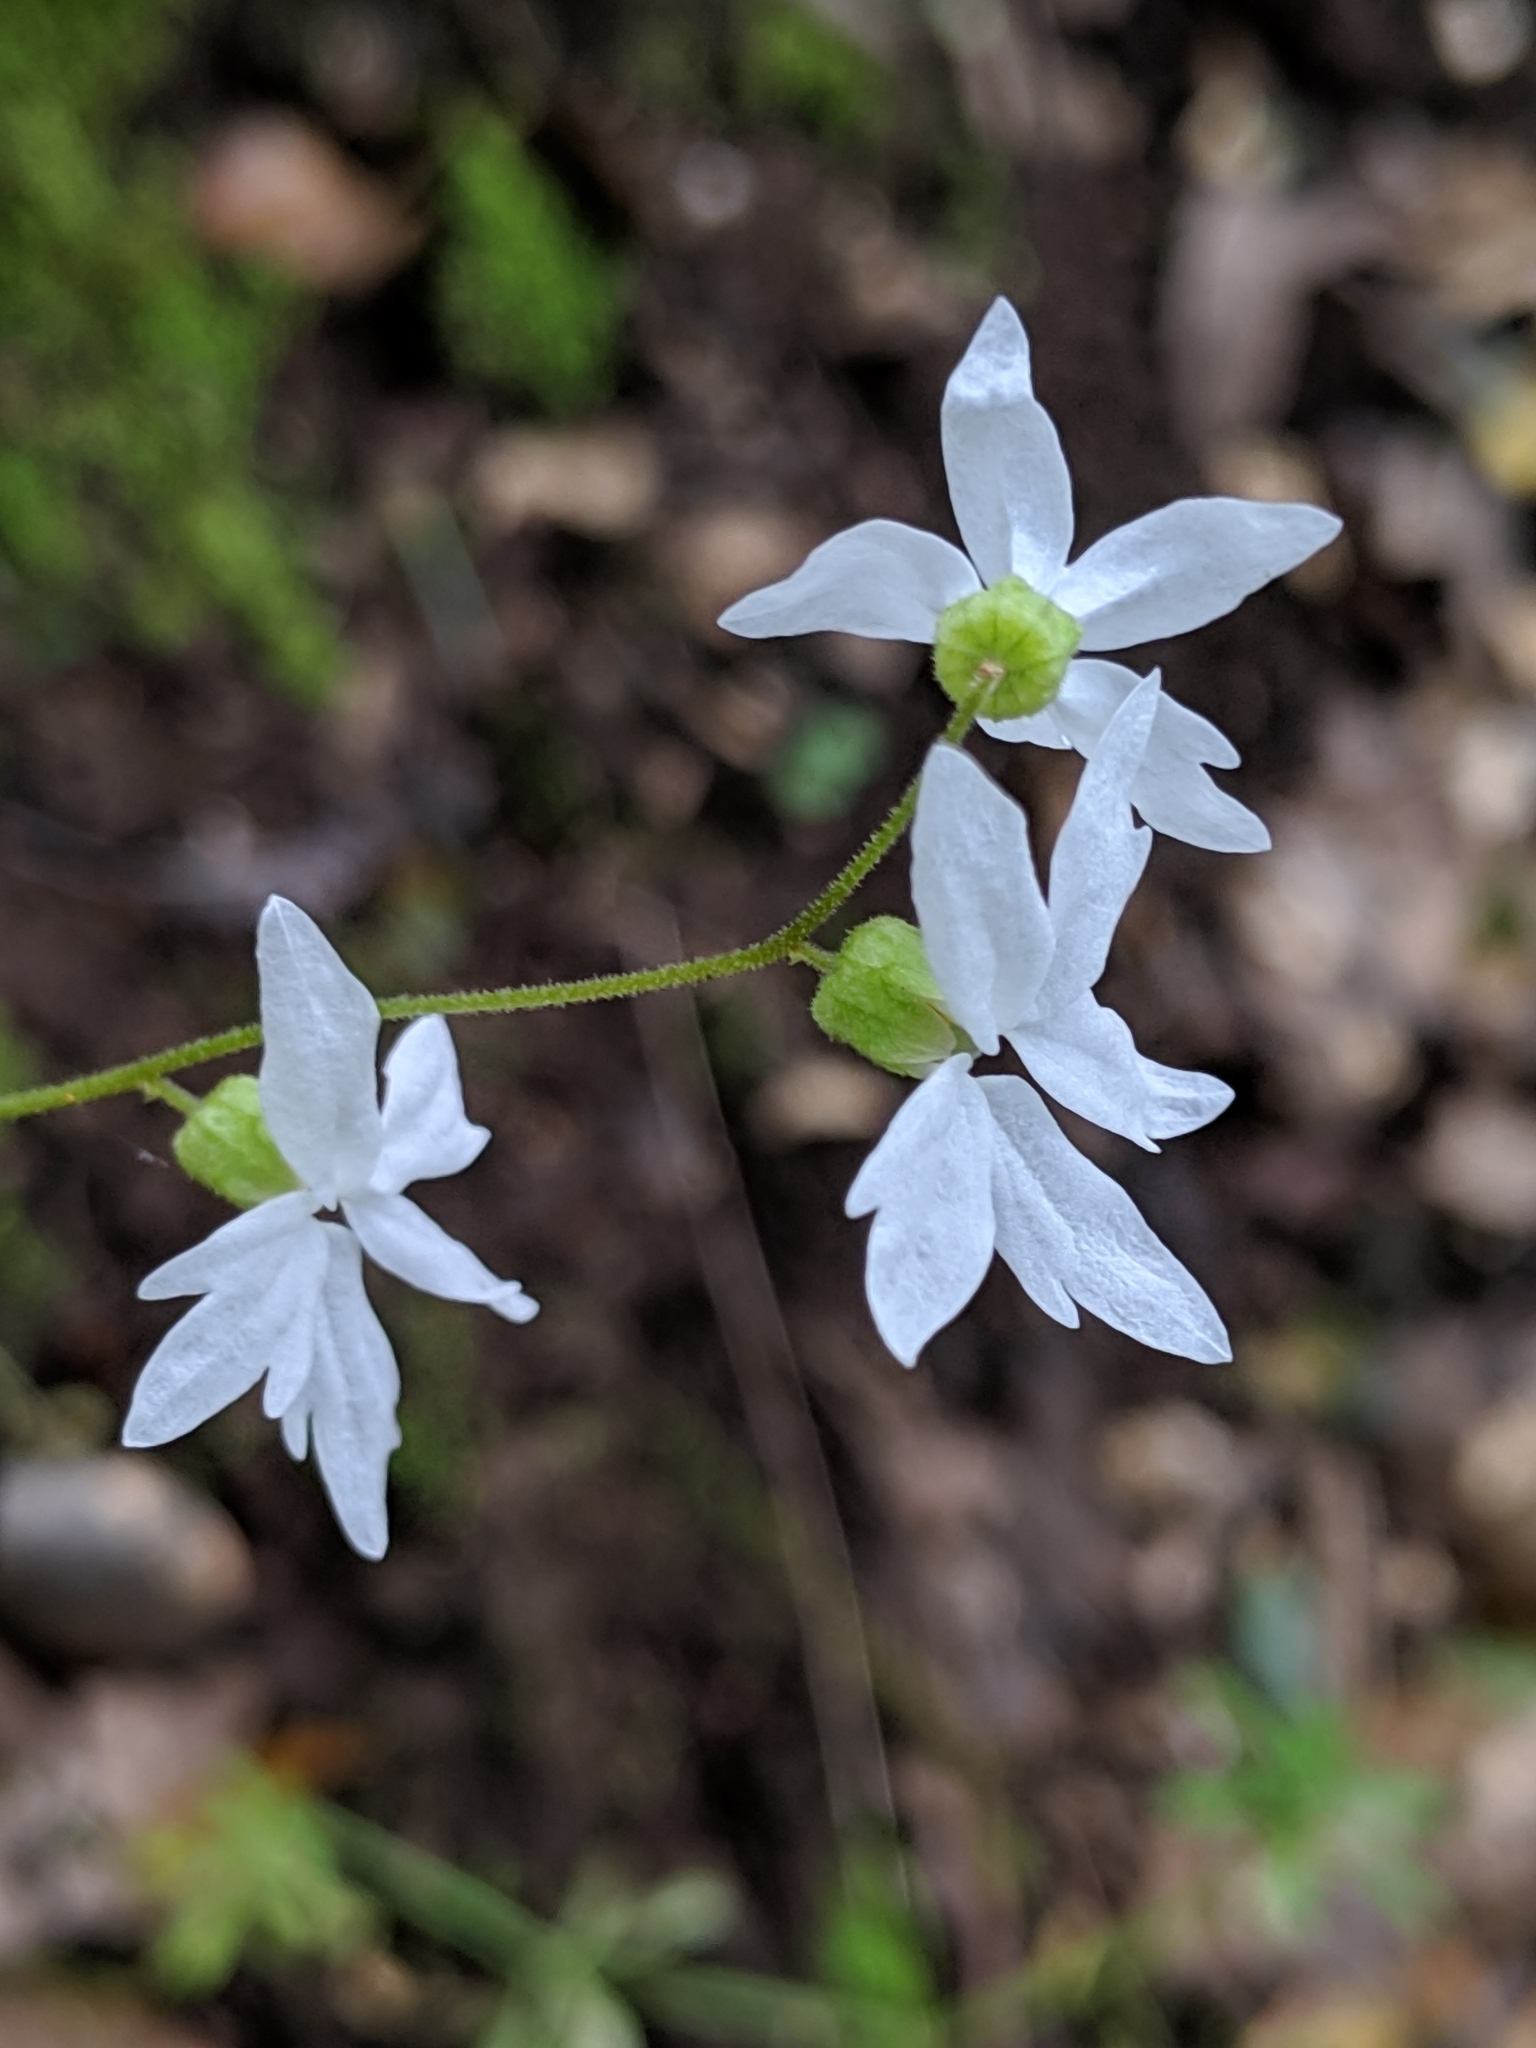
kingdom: Plantae
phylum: Tracheophyta
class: Magnoliopsida
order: Saxifragales
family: Saxifragaceae
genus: Lithophragma
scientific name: Lithophragma heterophyllum
